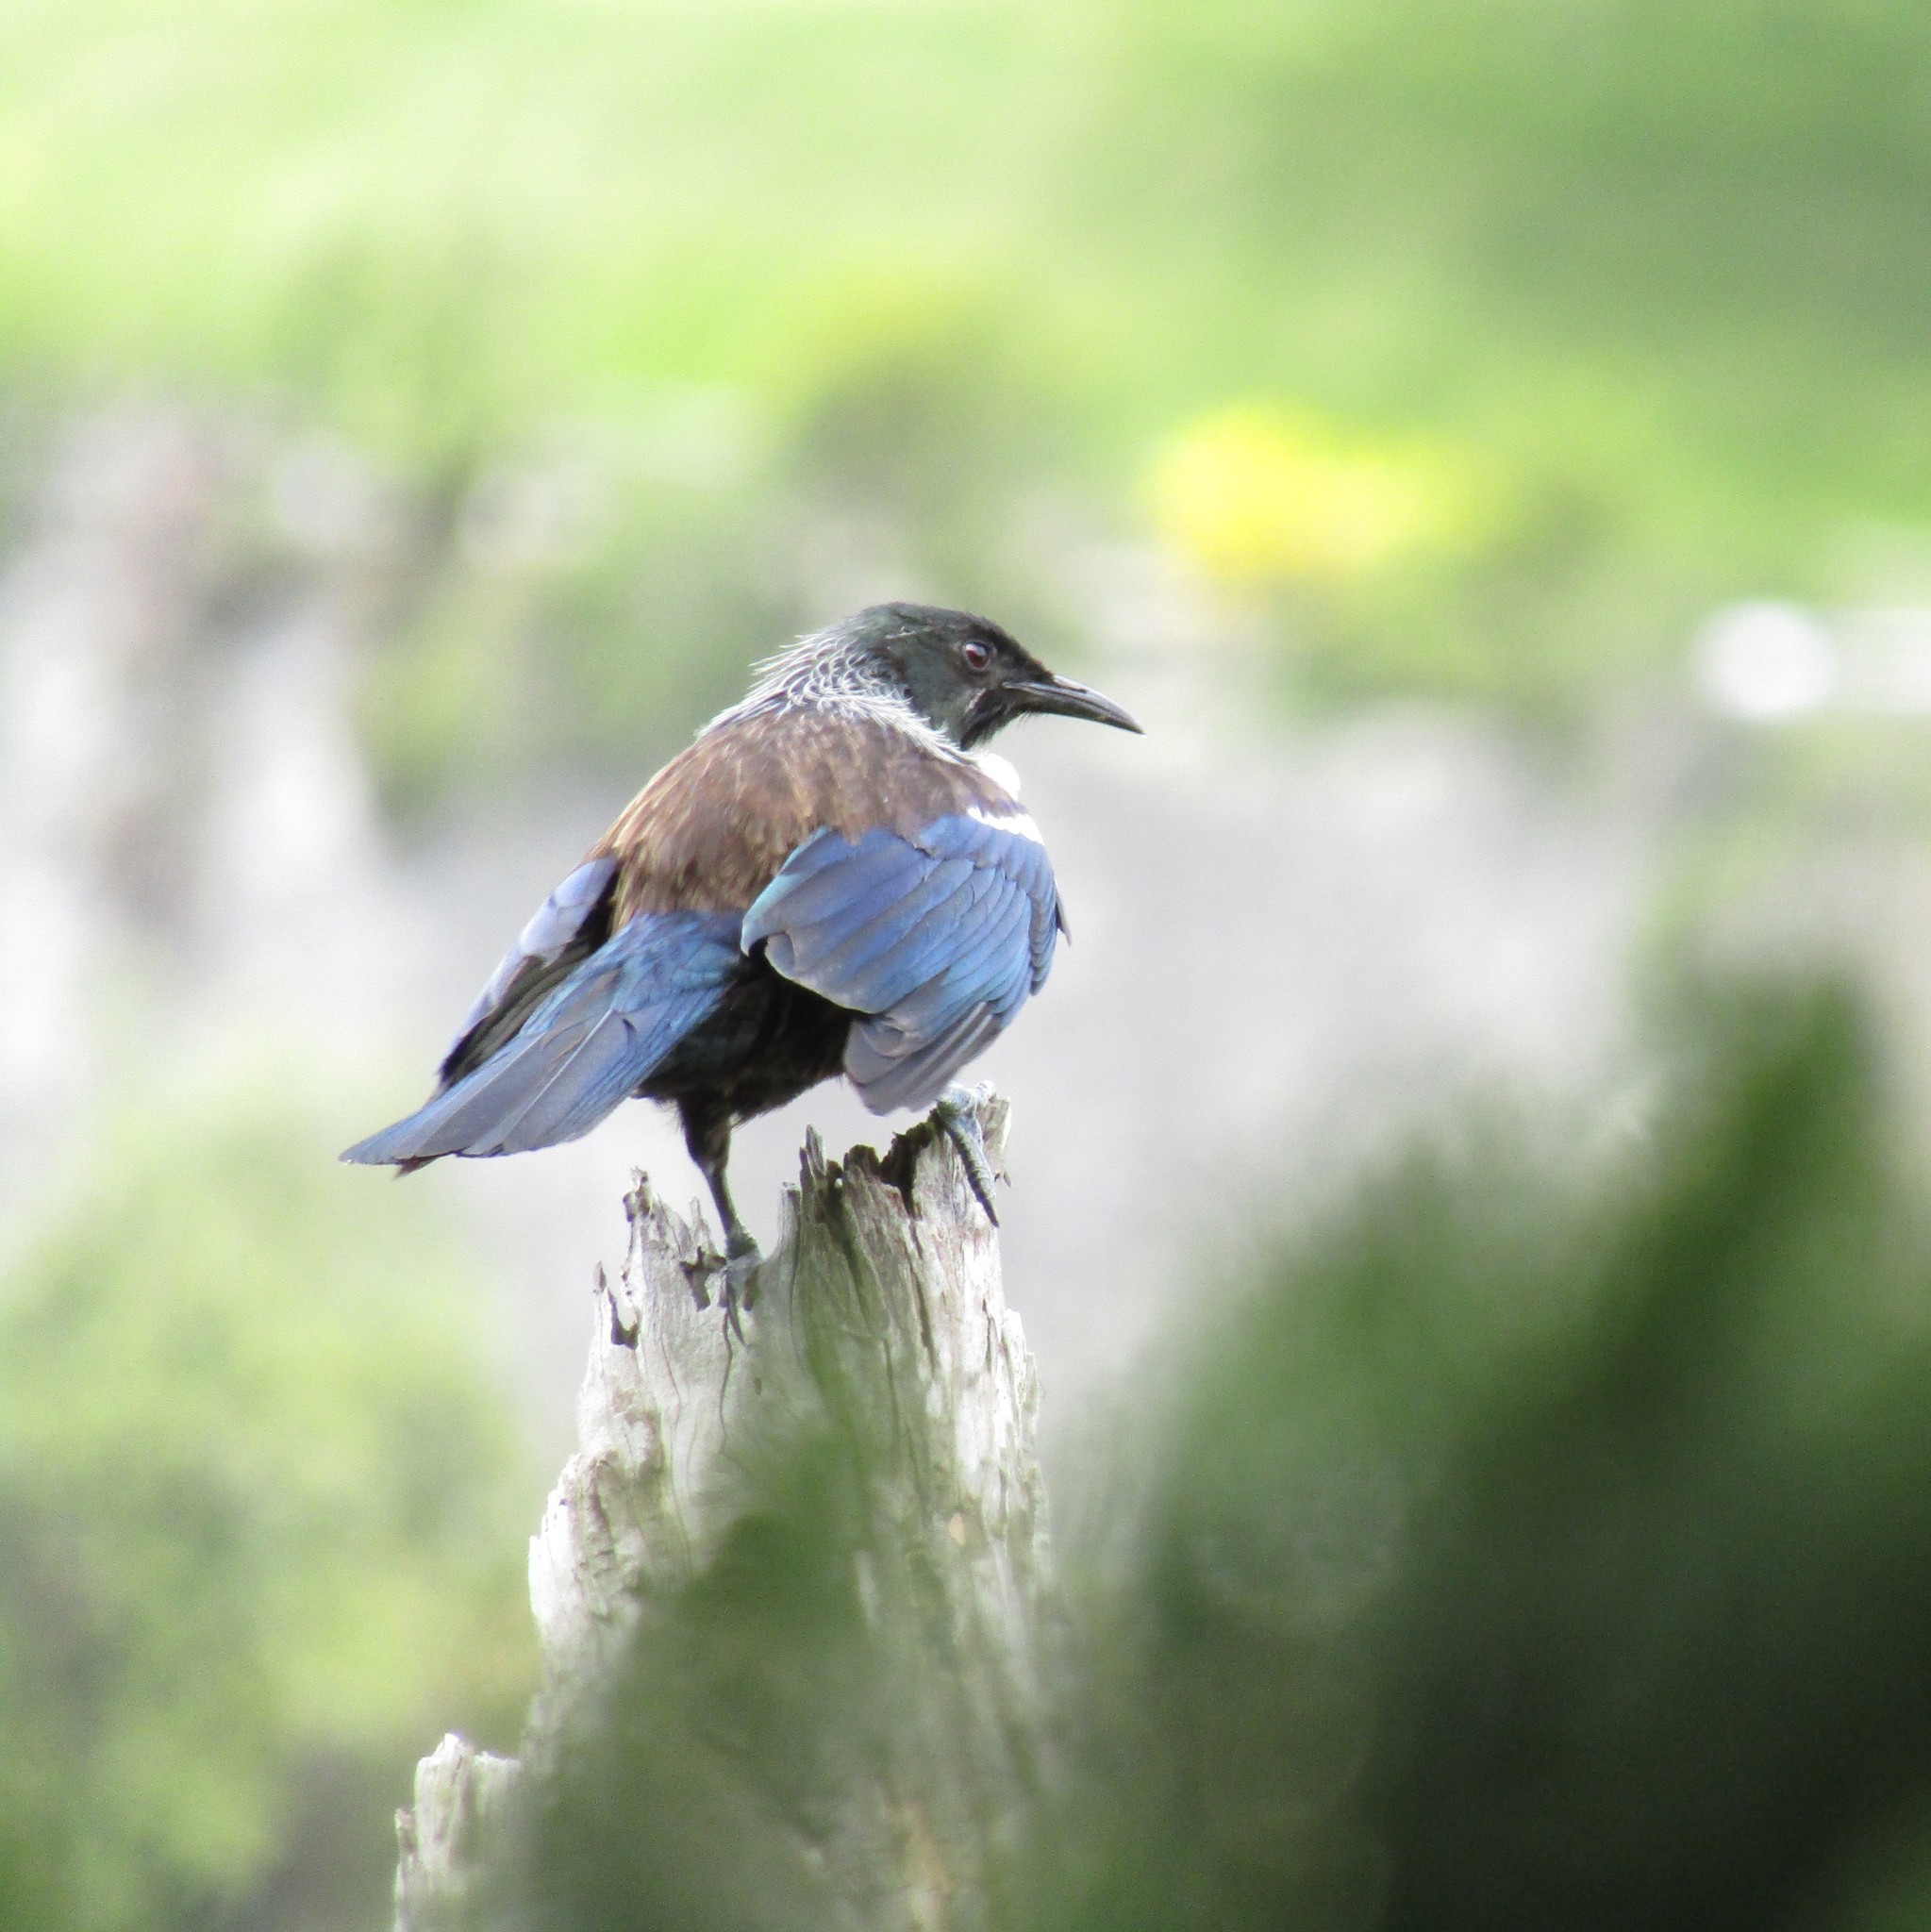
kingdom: Animalia
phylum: Chordata
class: Aves
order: Passeriformes
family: Meliphagidae
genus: Prosthemadera
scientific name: Prosthemadera novaeseelandiae
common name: Tui
